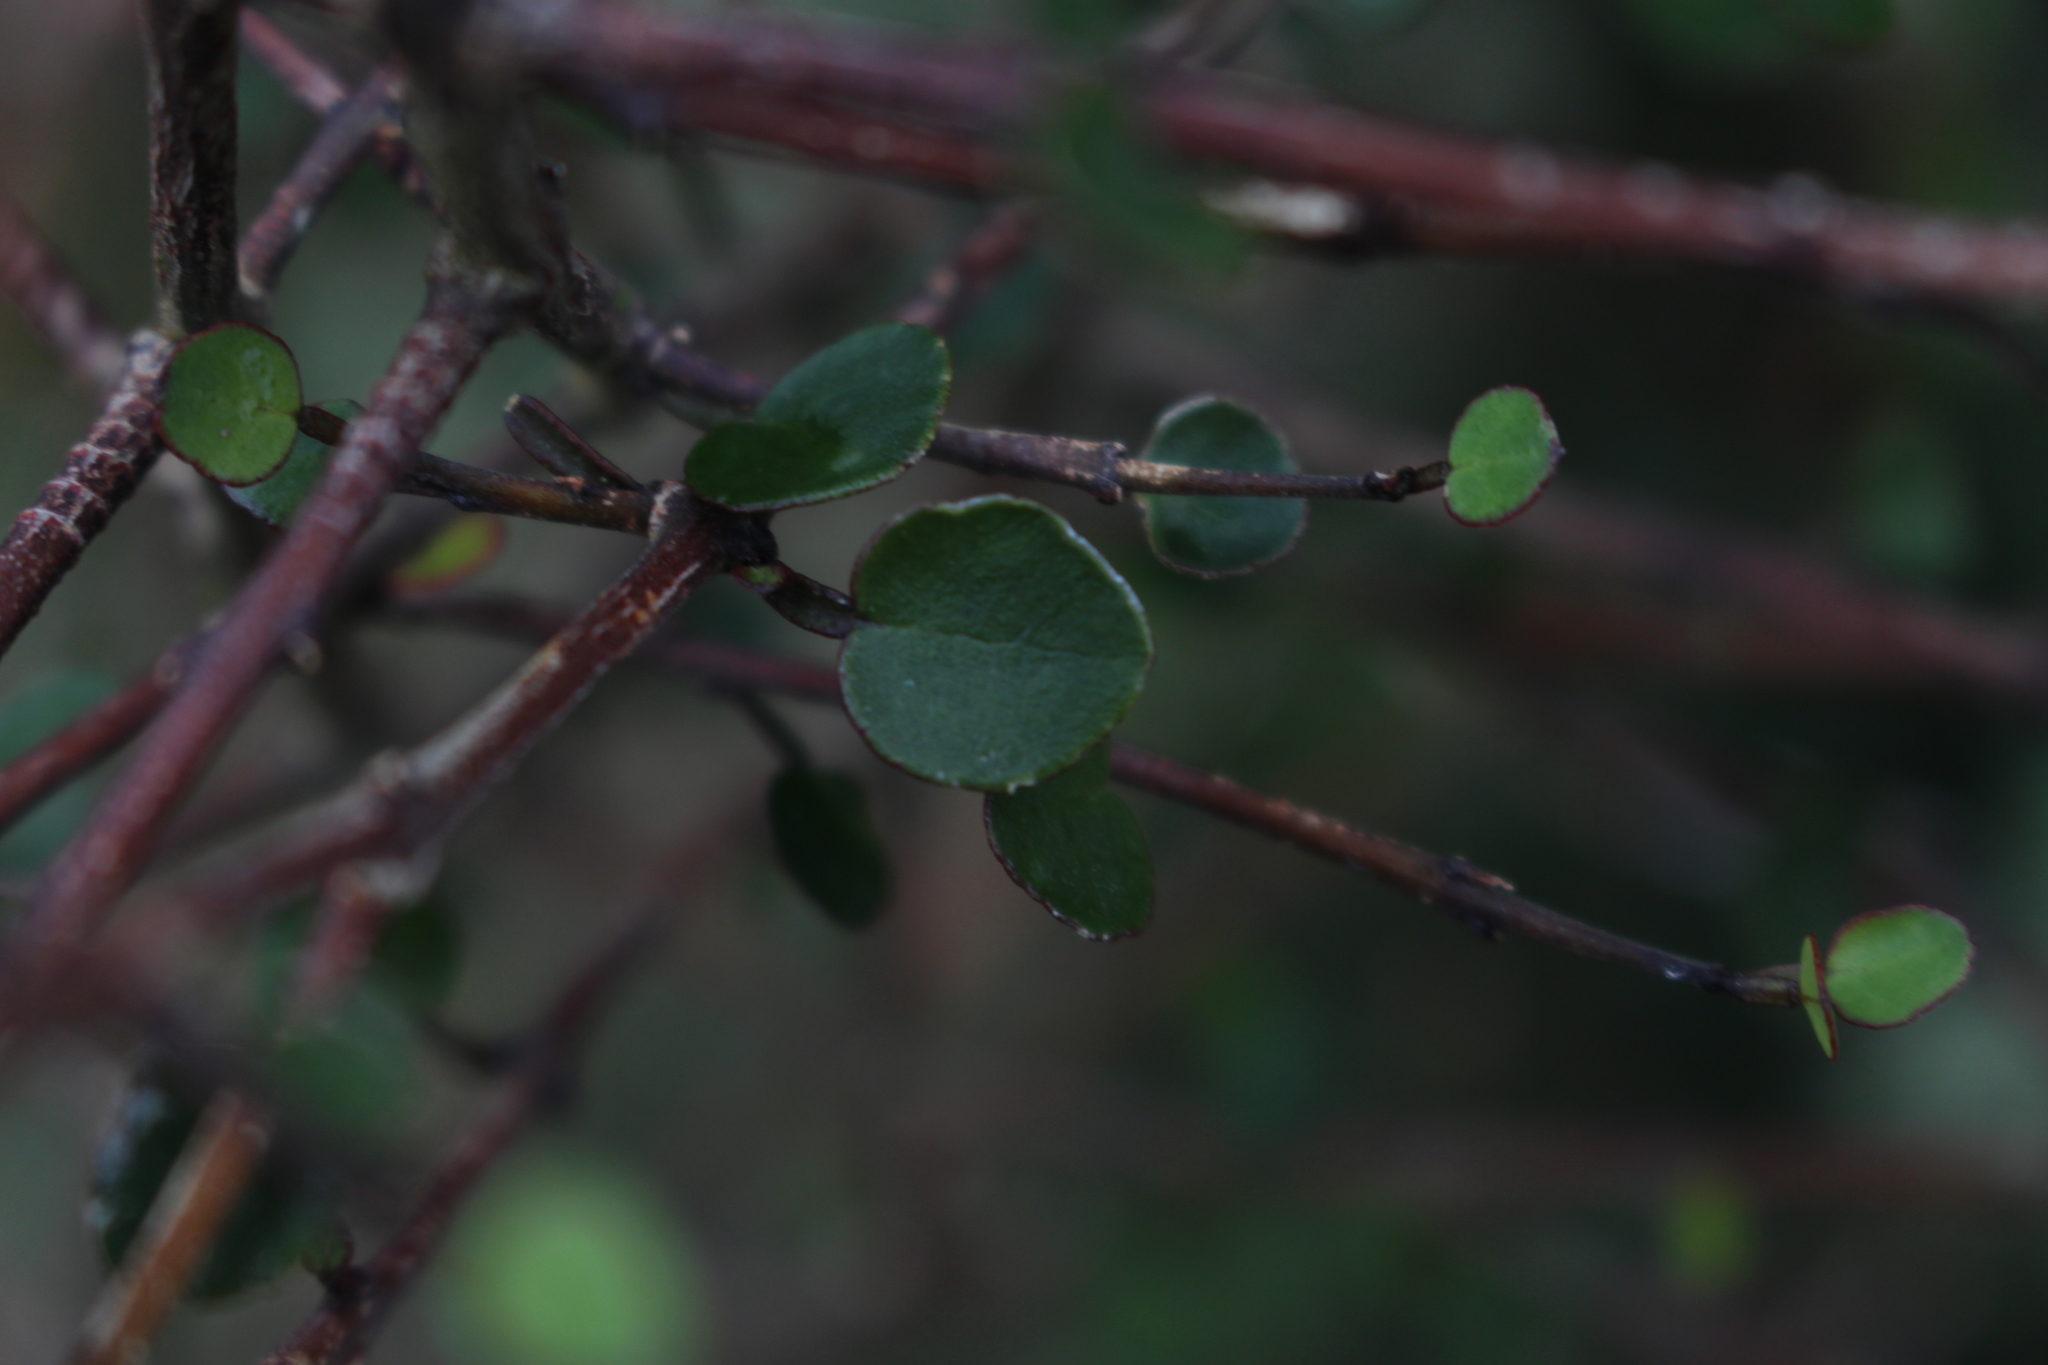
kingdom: Plantae
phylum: Tracheophyta
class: Magnoliopsida
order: Sapindales
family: Rutaceae
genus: Melicope
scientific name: Melicope simplex
